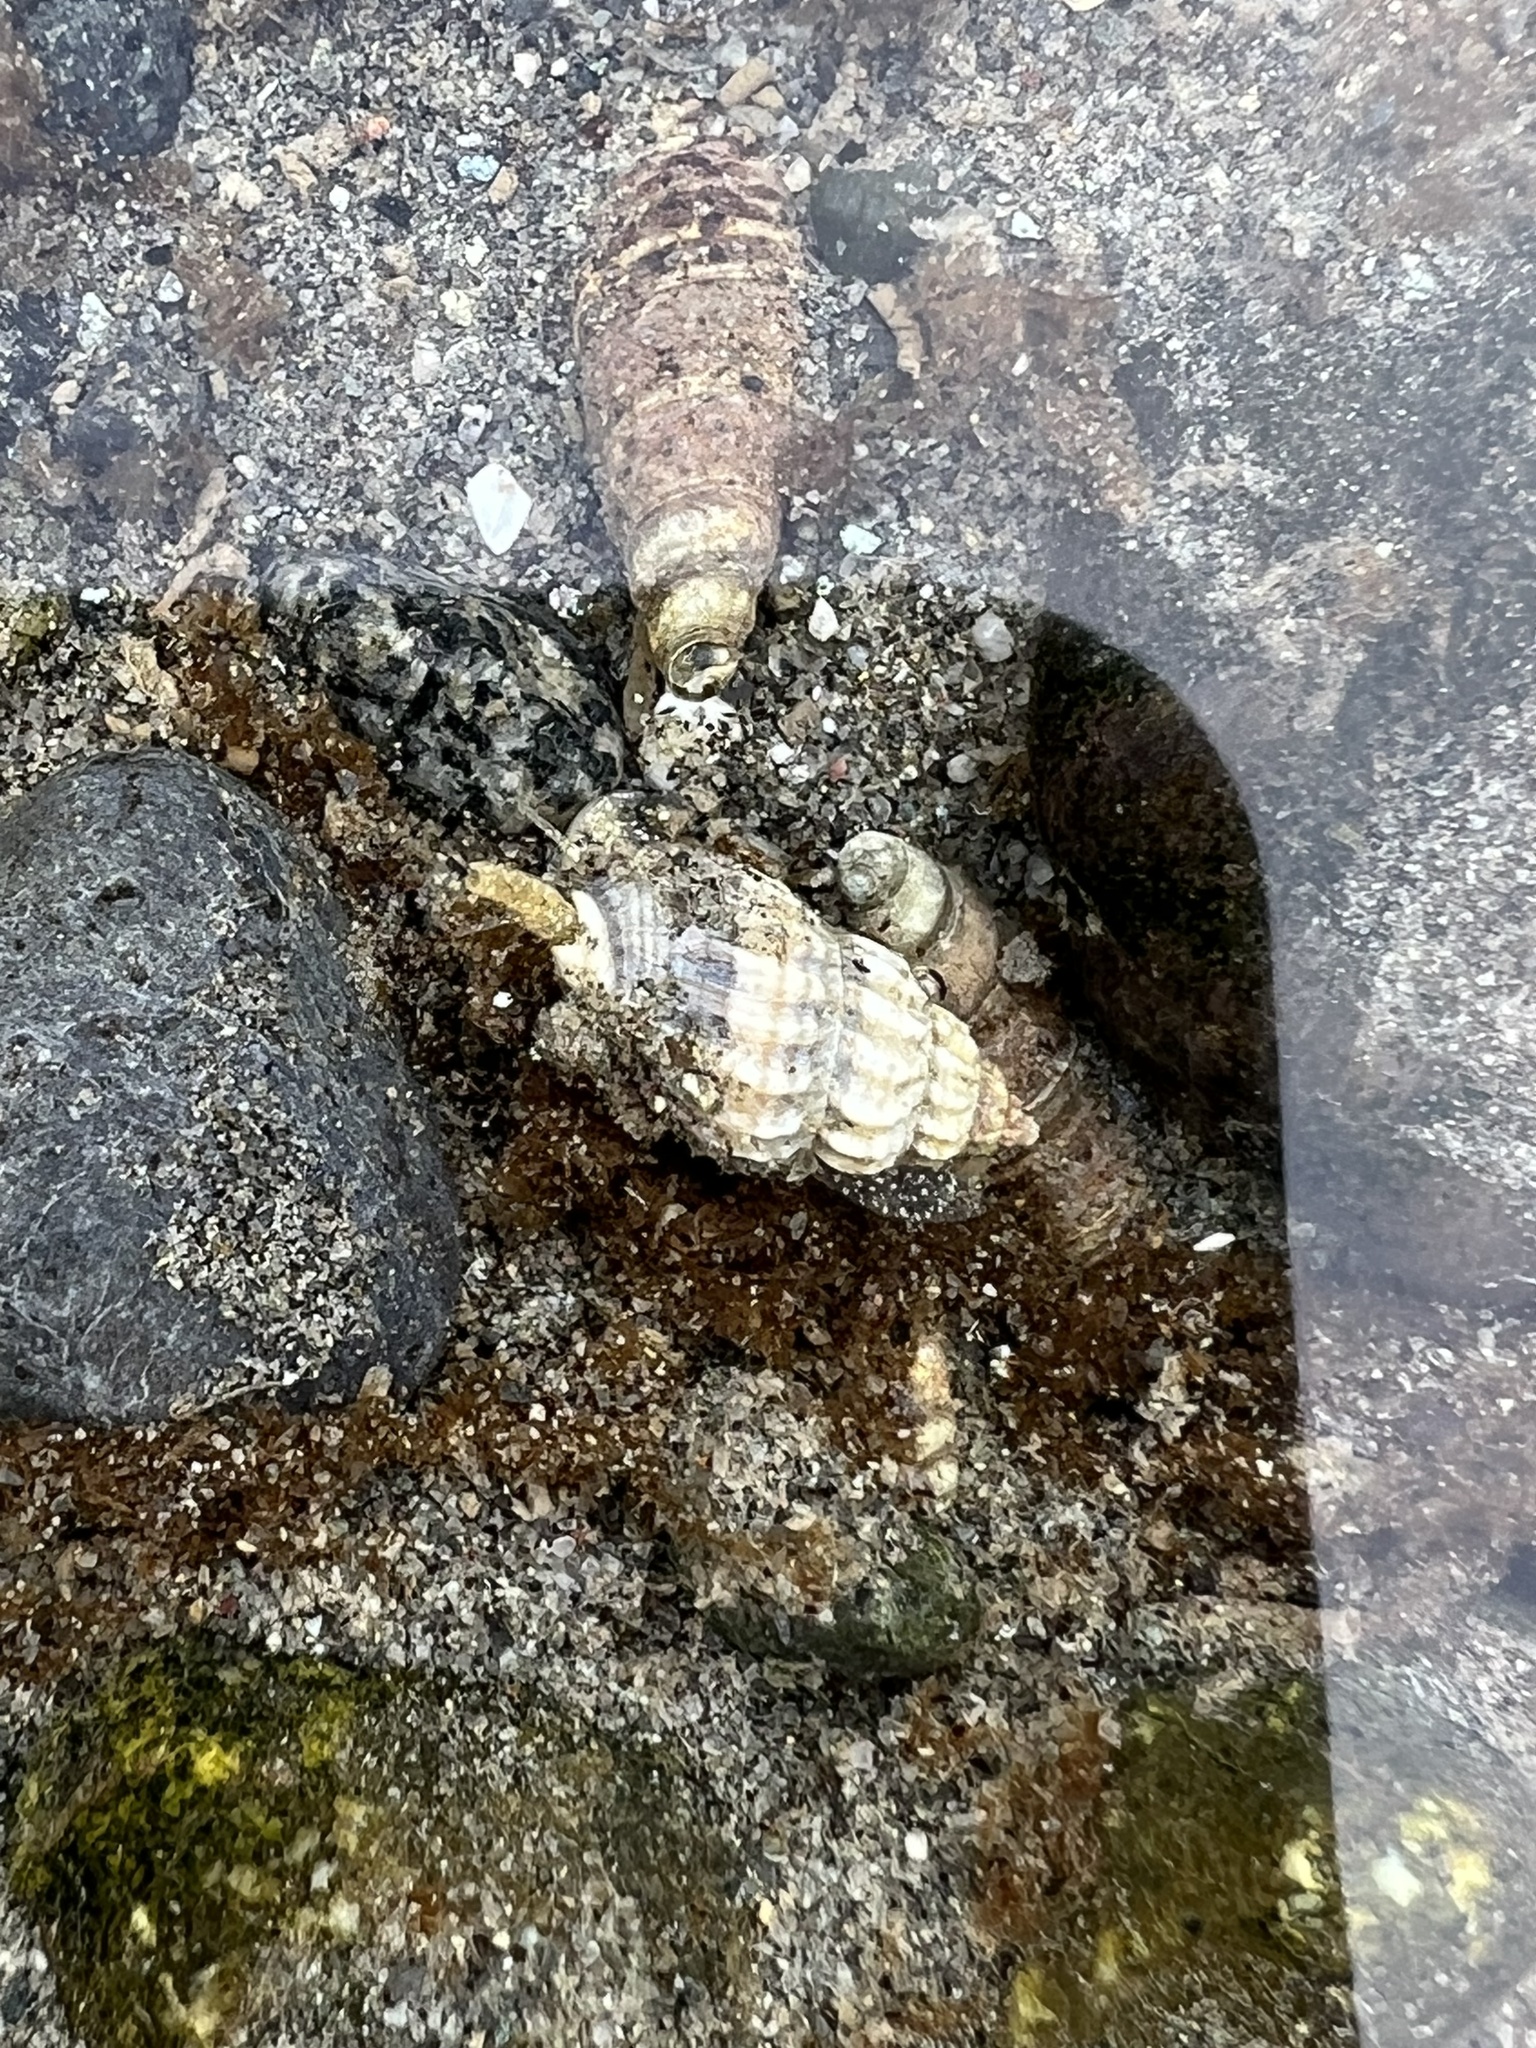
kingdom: Animalia
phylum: Mollusca
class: Gastropoda
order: Neogastropoda
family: Nassariidae
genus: Nassarius
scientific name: Nassarius fraterculus
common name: Japanese nassa
